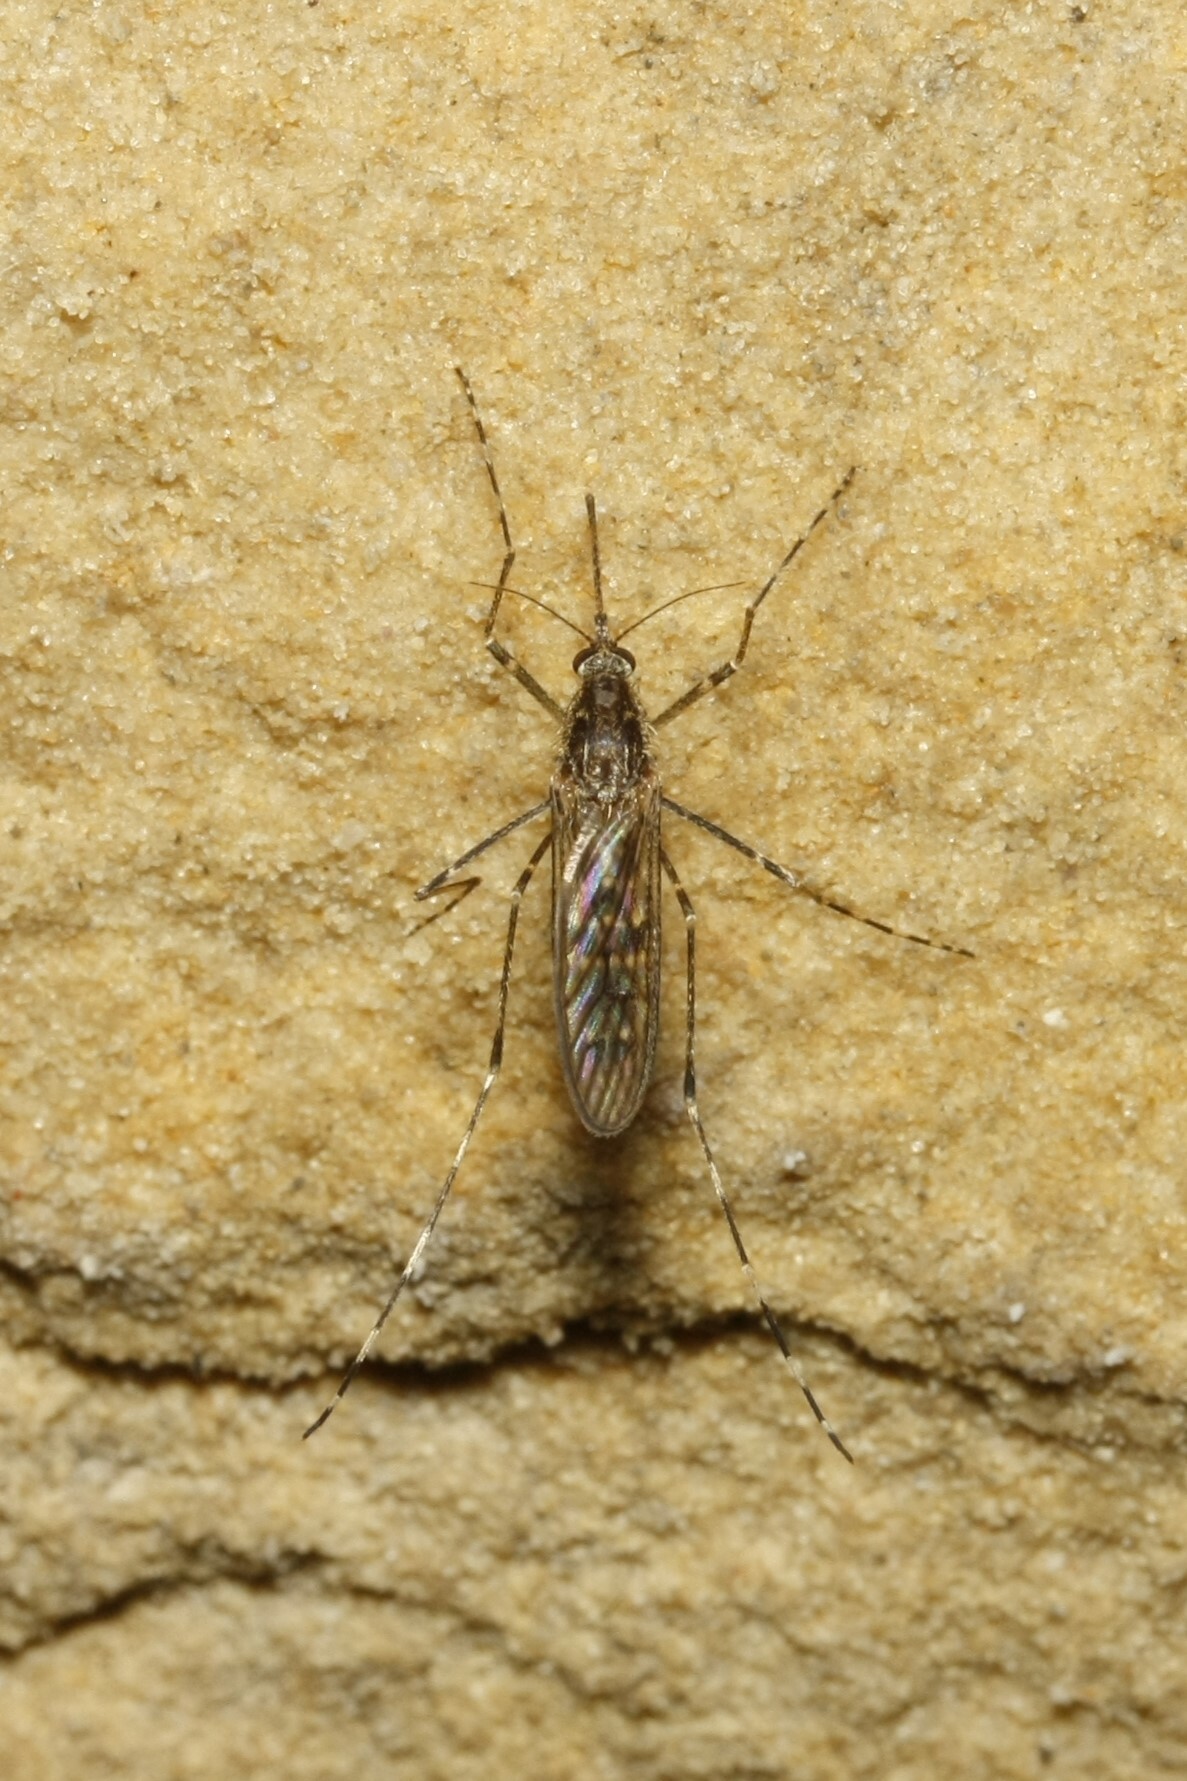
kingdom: Animalia
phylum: Arthropoda
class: Insecta
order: Diptera
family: Culicidae
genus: Culiseta
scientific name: Culiseta annulata
